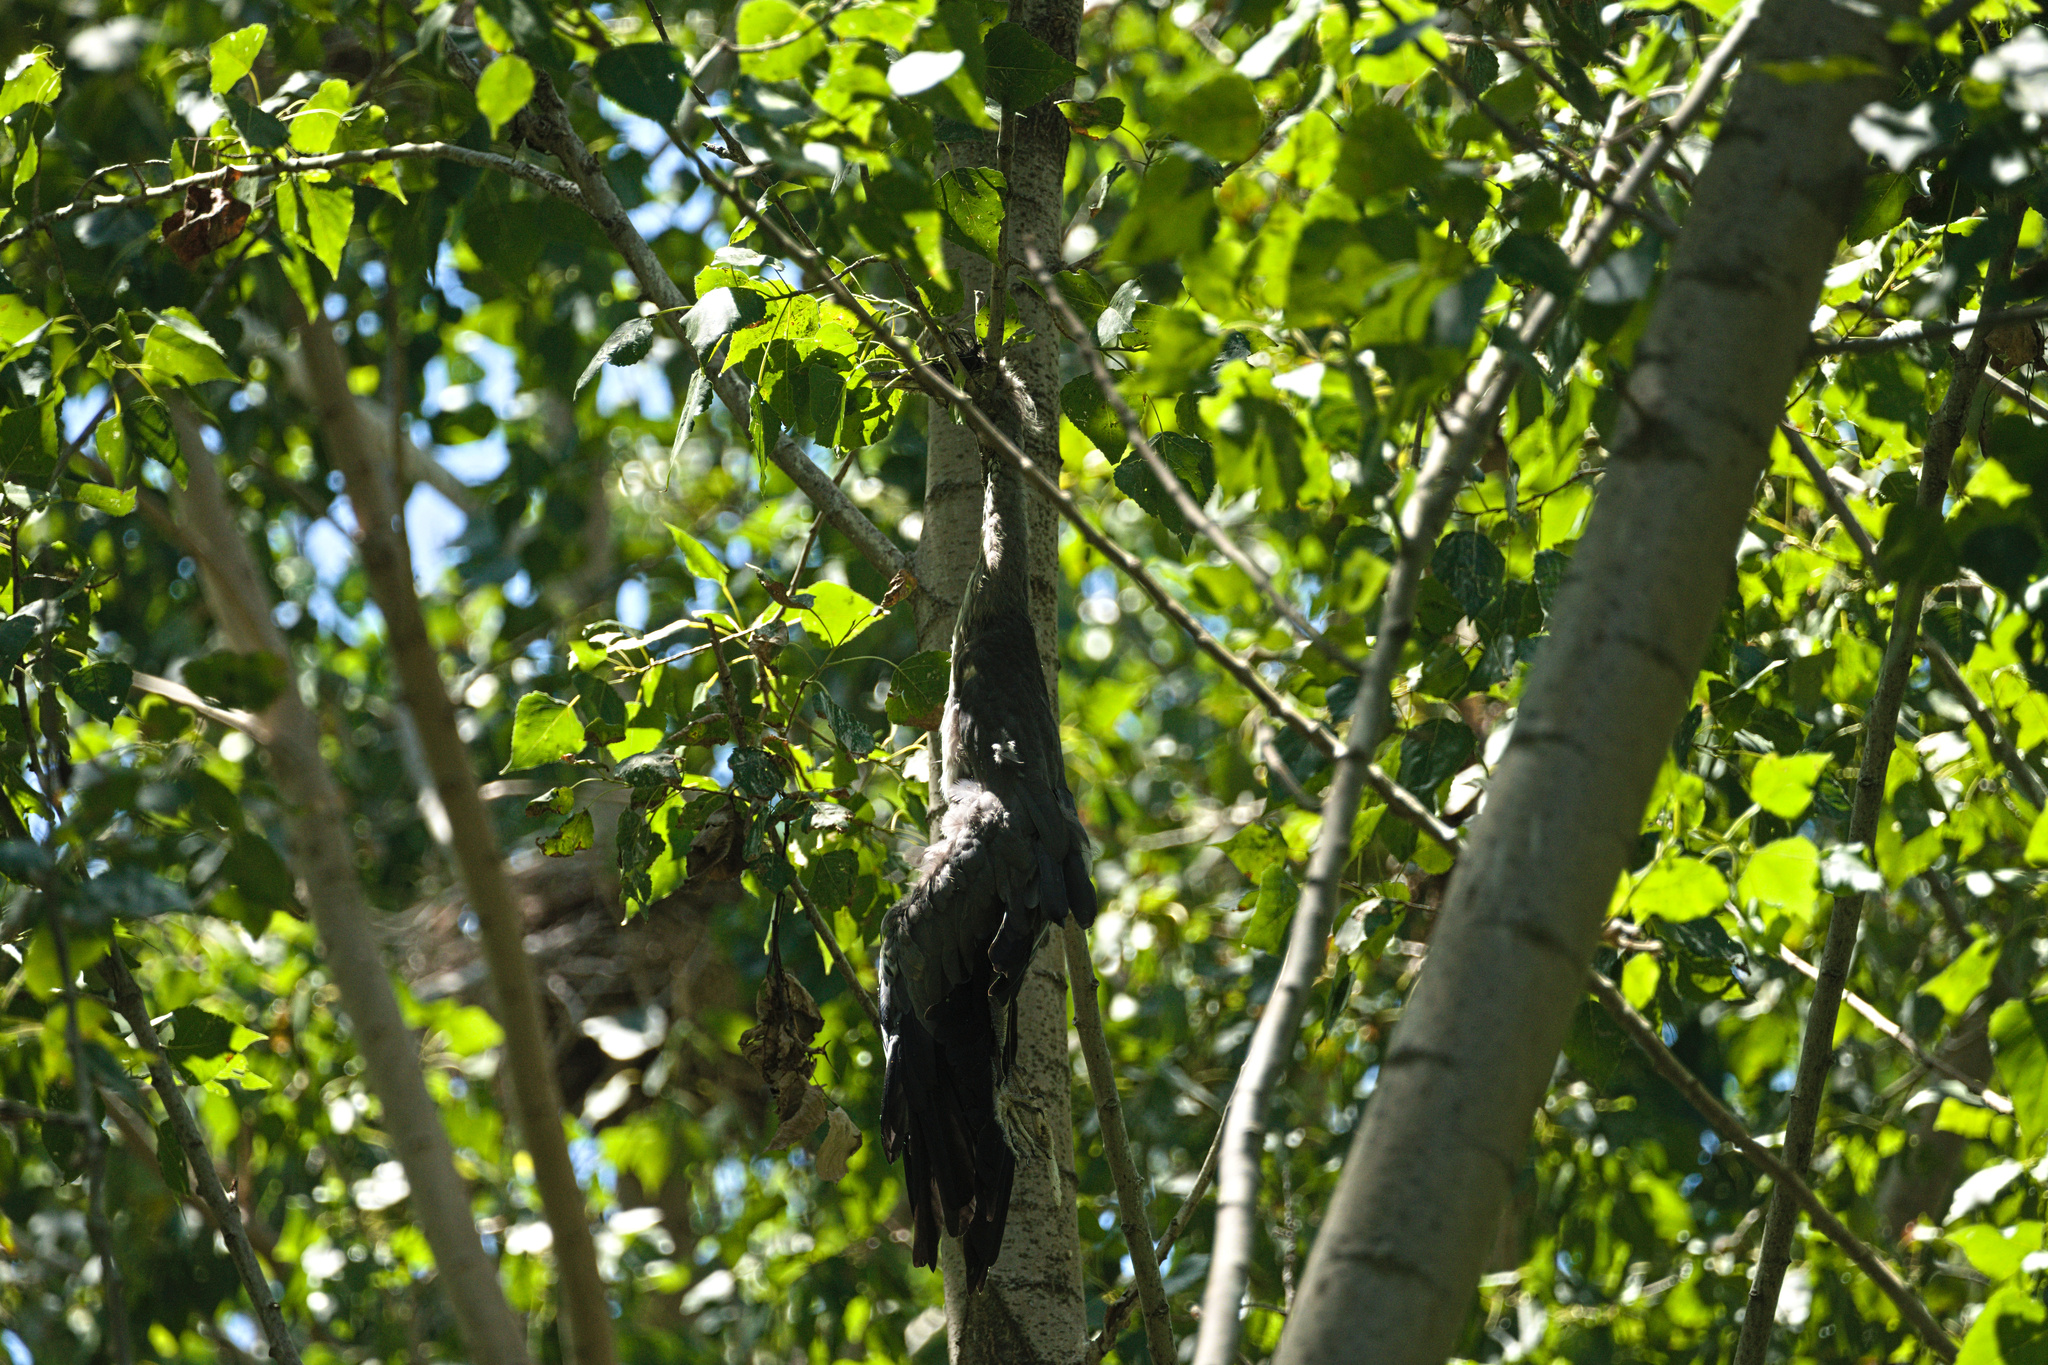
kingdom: Animalia
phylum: Chordata
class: Aves
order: Pelecaniformes
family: Ardeidae
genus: Ardea
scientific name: Ardea cinerea
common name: Grey heron
